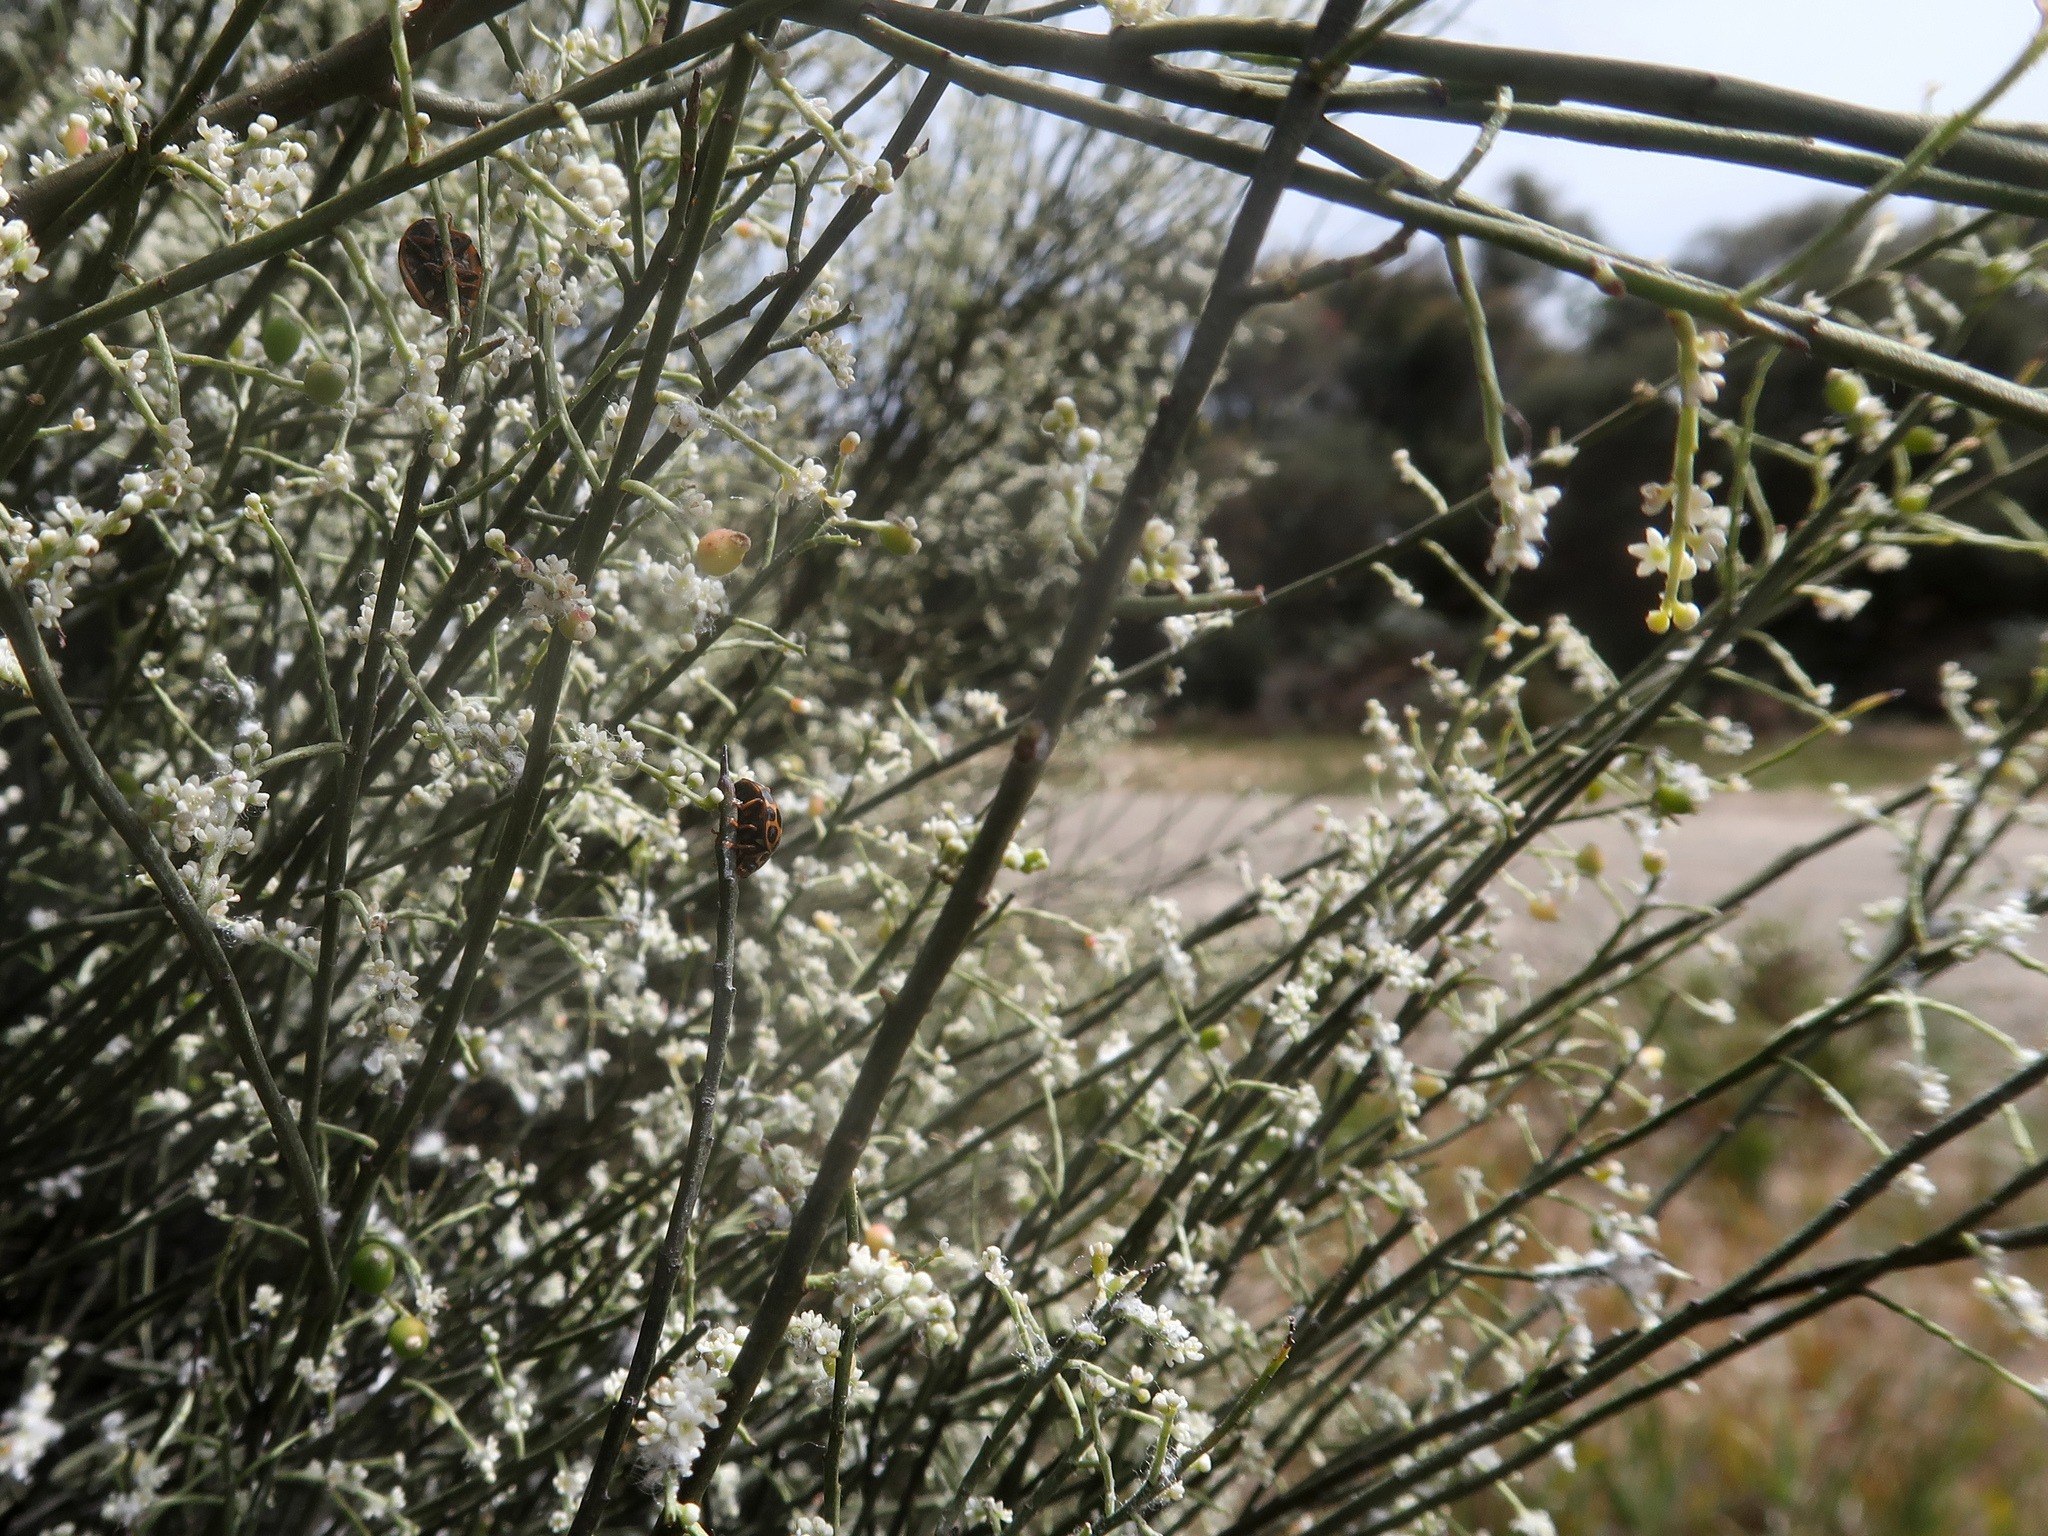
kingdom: Plantae
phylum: Tracheophyta
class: Magnoliopsida
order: Santalales
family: Amphorogynaceae
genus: Leptomeria
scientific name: Leptomeria drupacea
